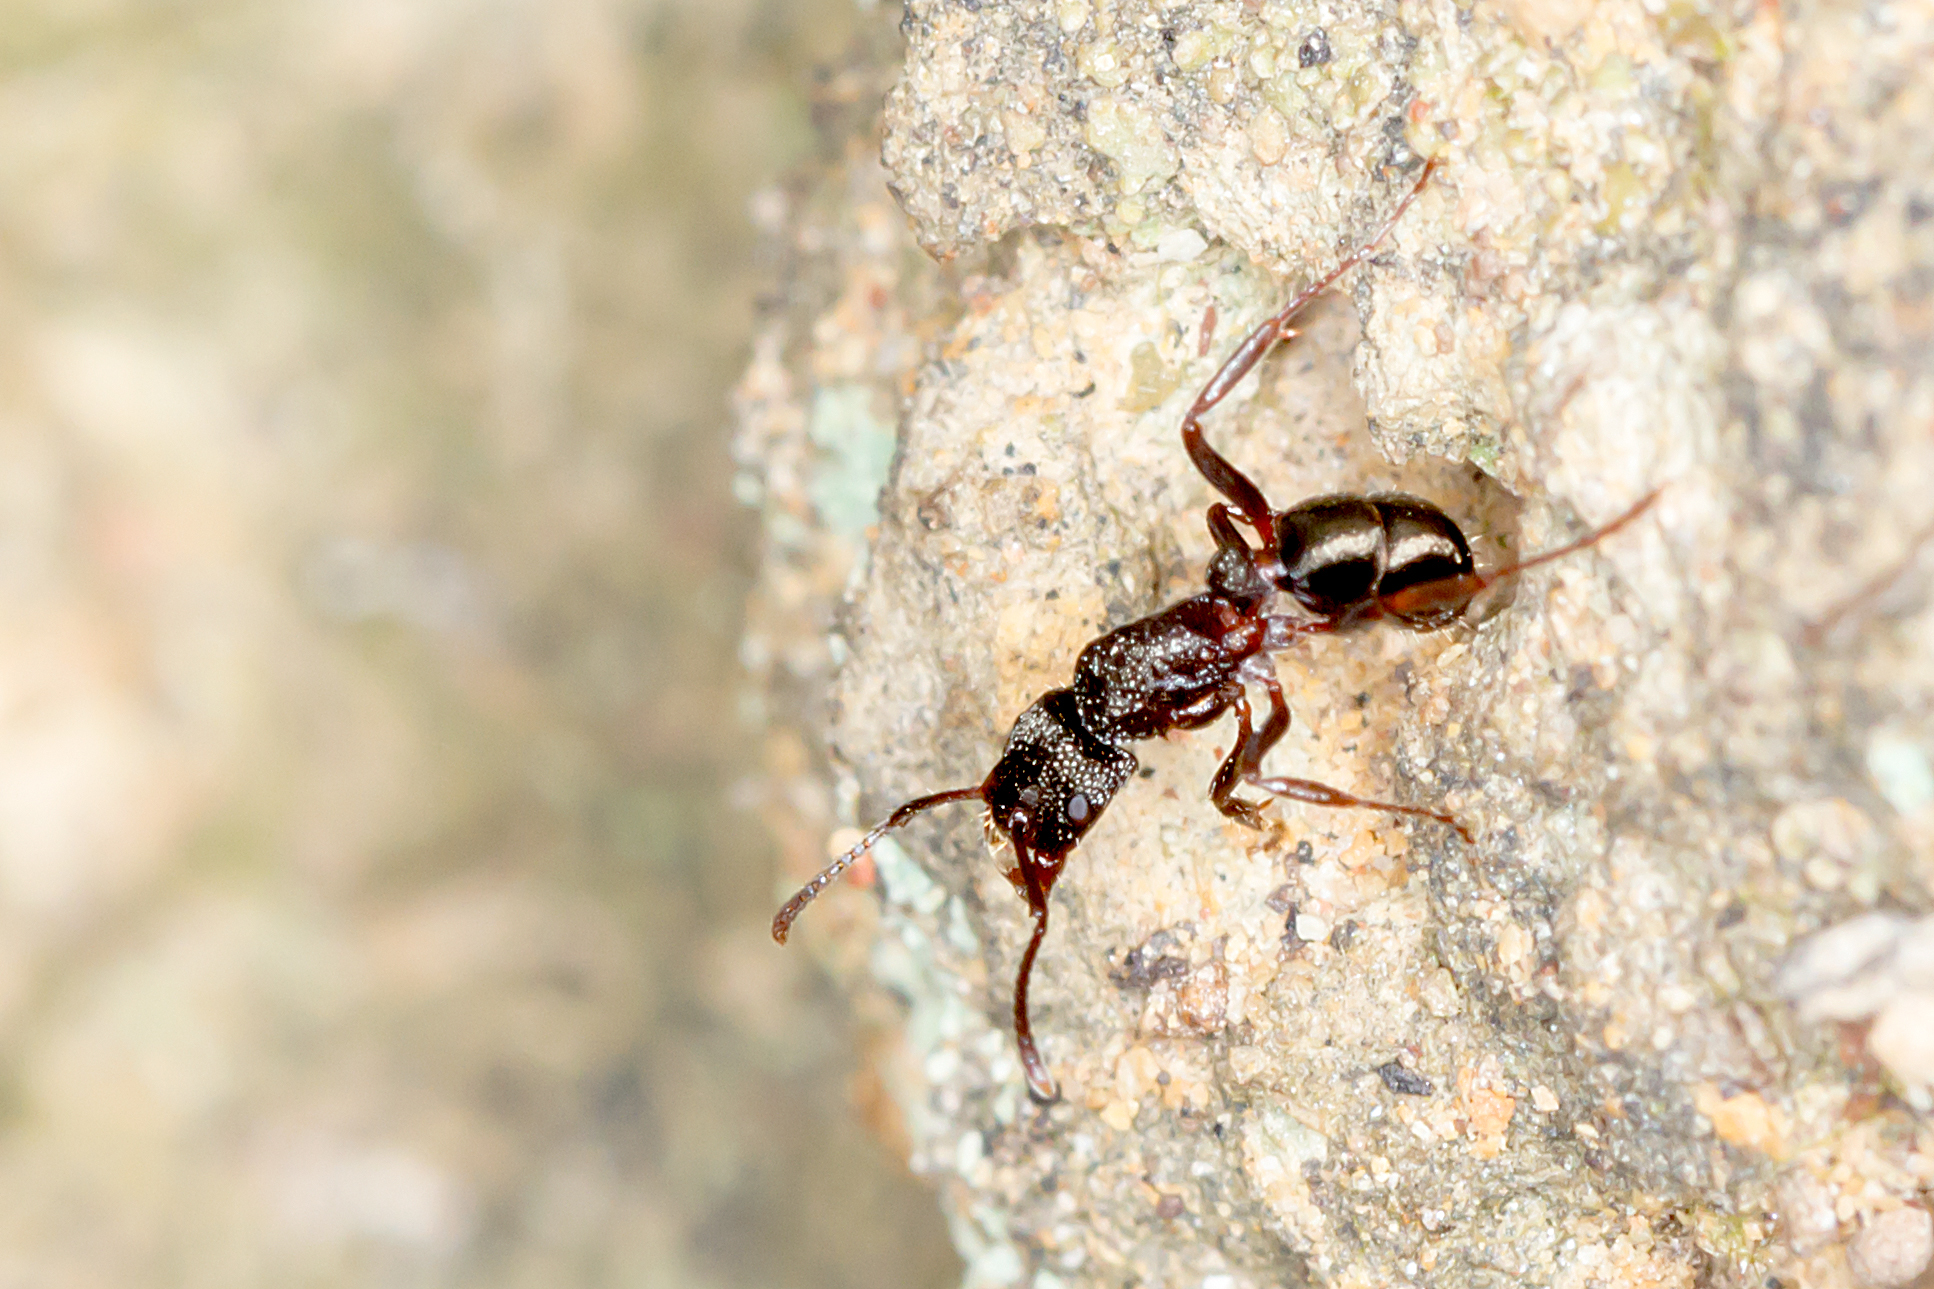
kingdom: Animalia
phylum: Arthropoda
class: Insecta
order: Hymenoptera
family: Formicidae
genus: Rhytidoponera
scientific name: Rhytidoponera tasmaniensis
